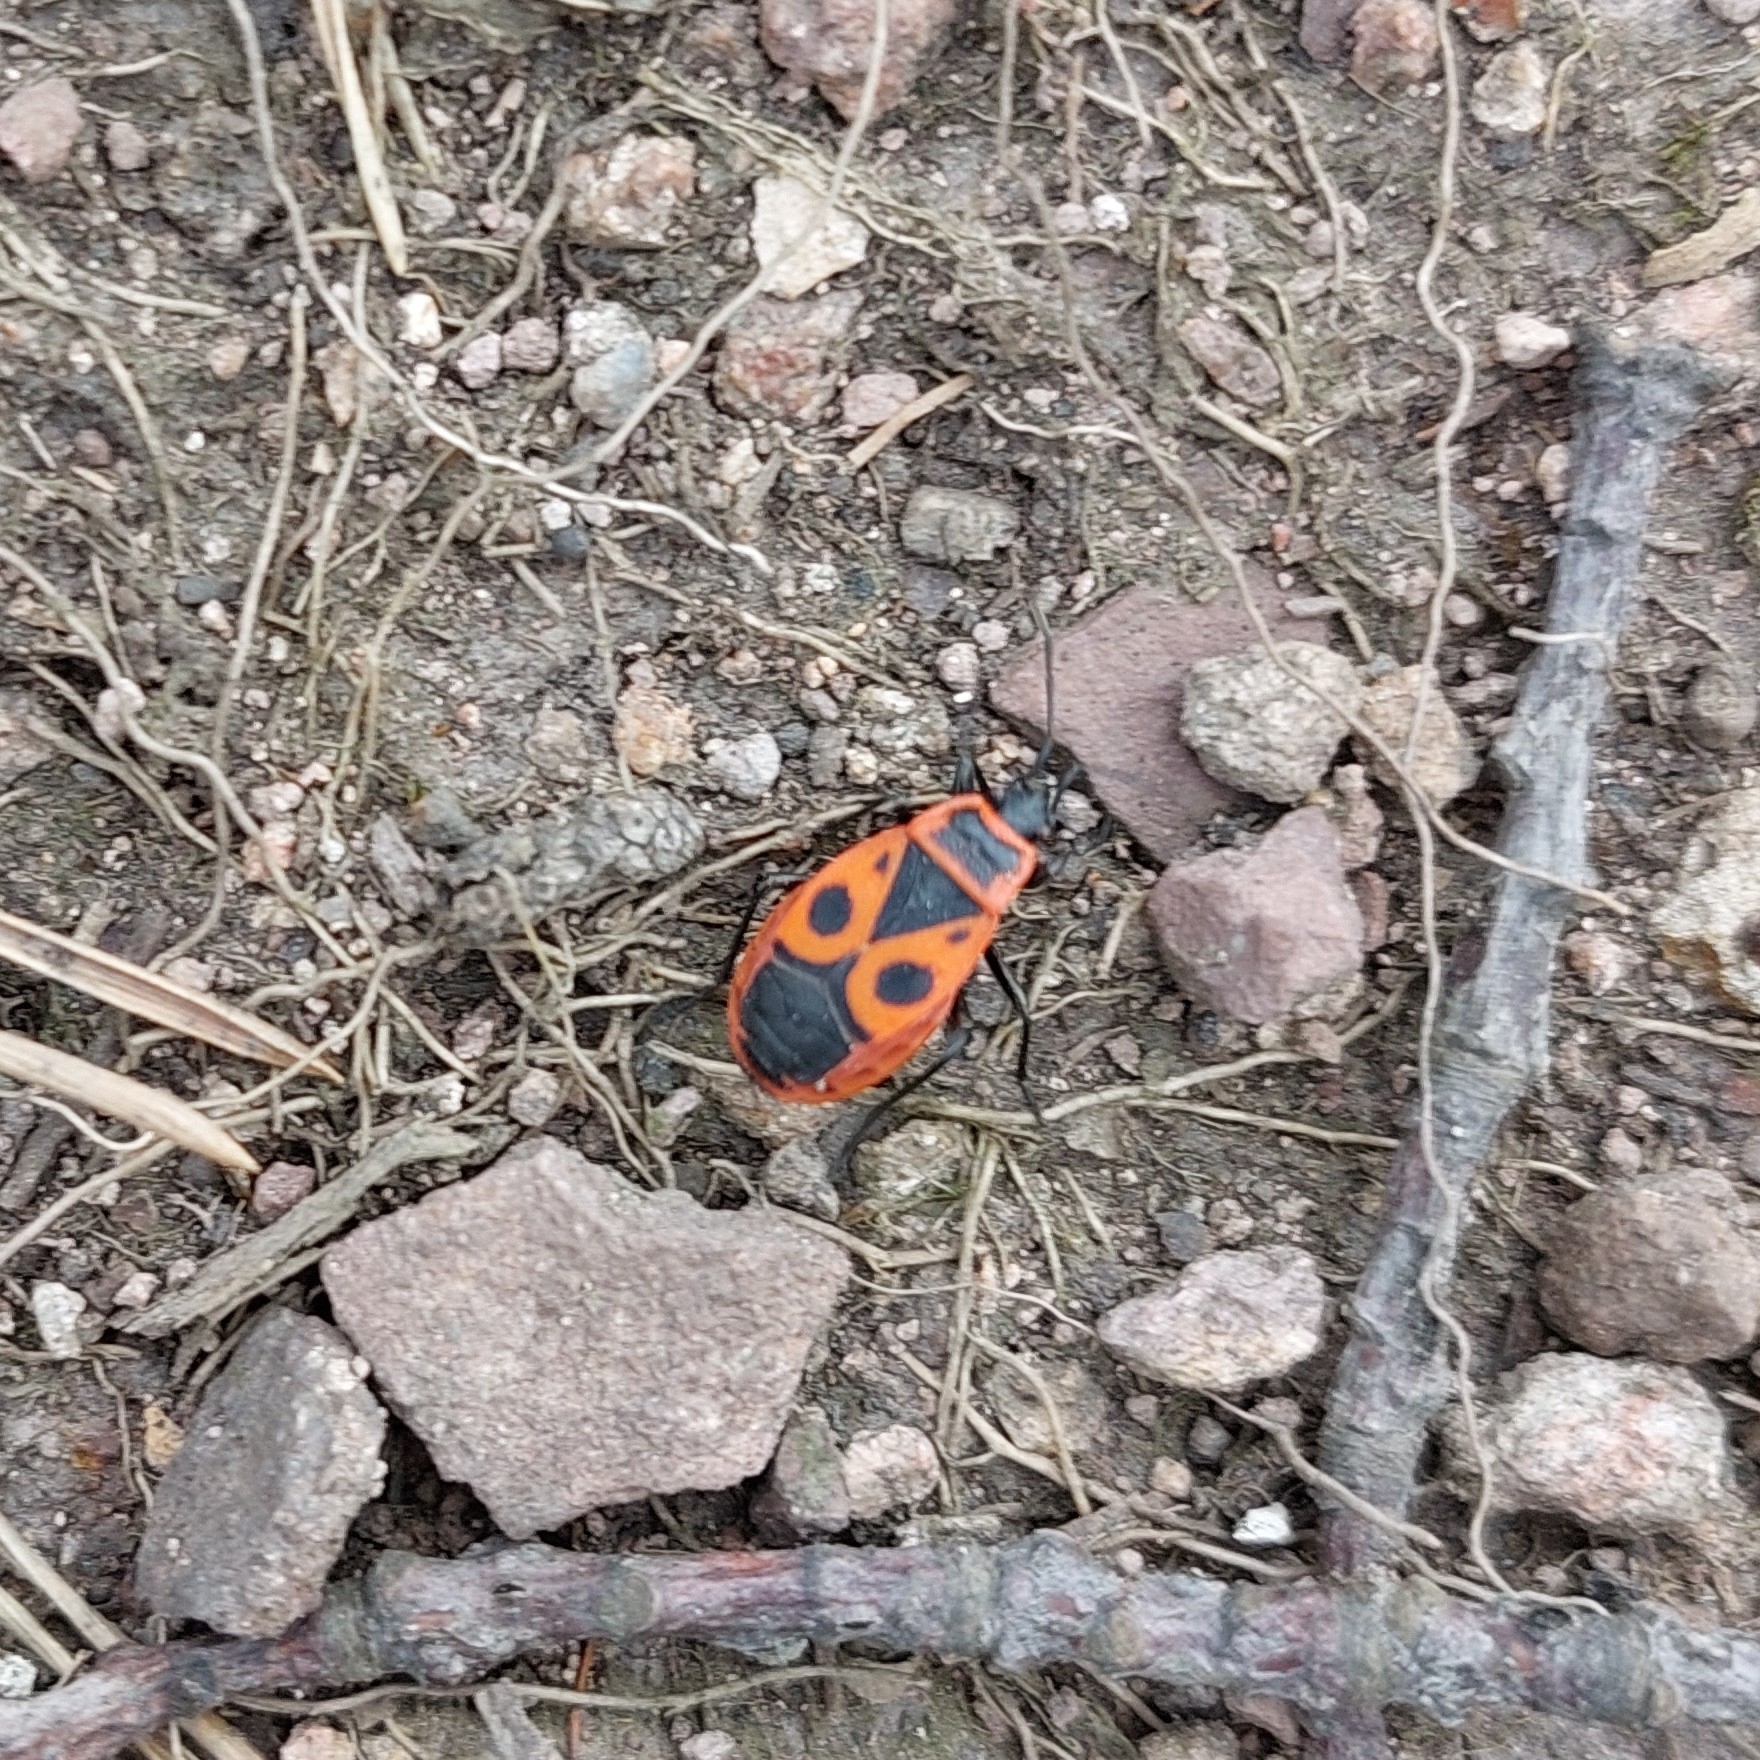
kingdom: Animalia
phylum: Arthropoda
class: Insecta
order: Hemiptera
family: Pyrrhocoridae
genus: Pyrrhocoris
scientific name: Pyrrhocoris apterus
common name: Firebug
